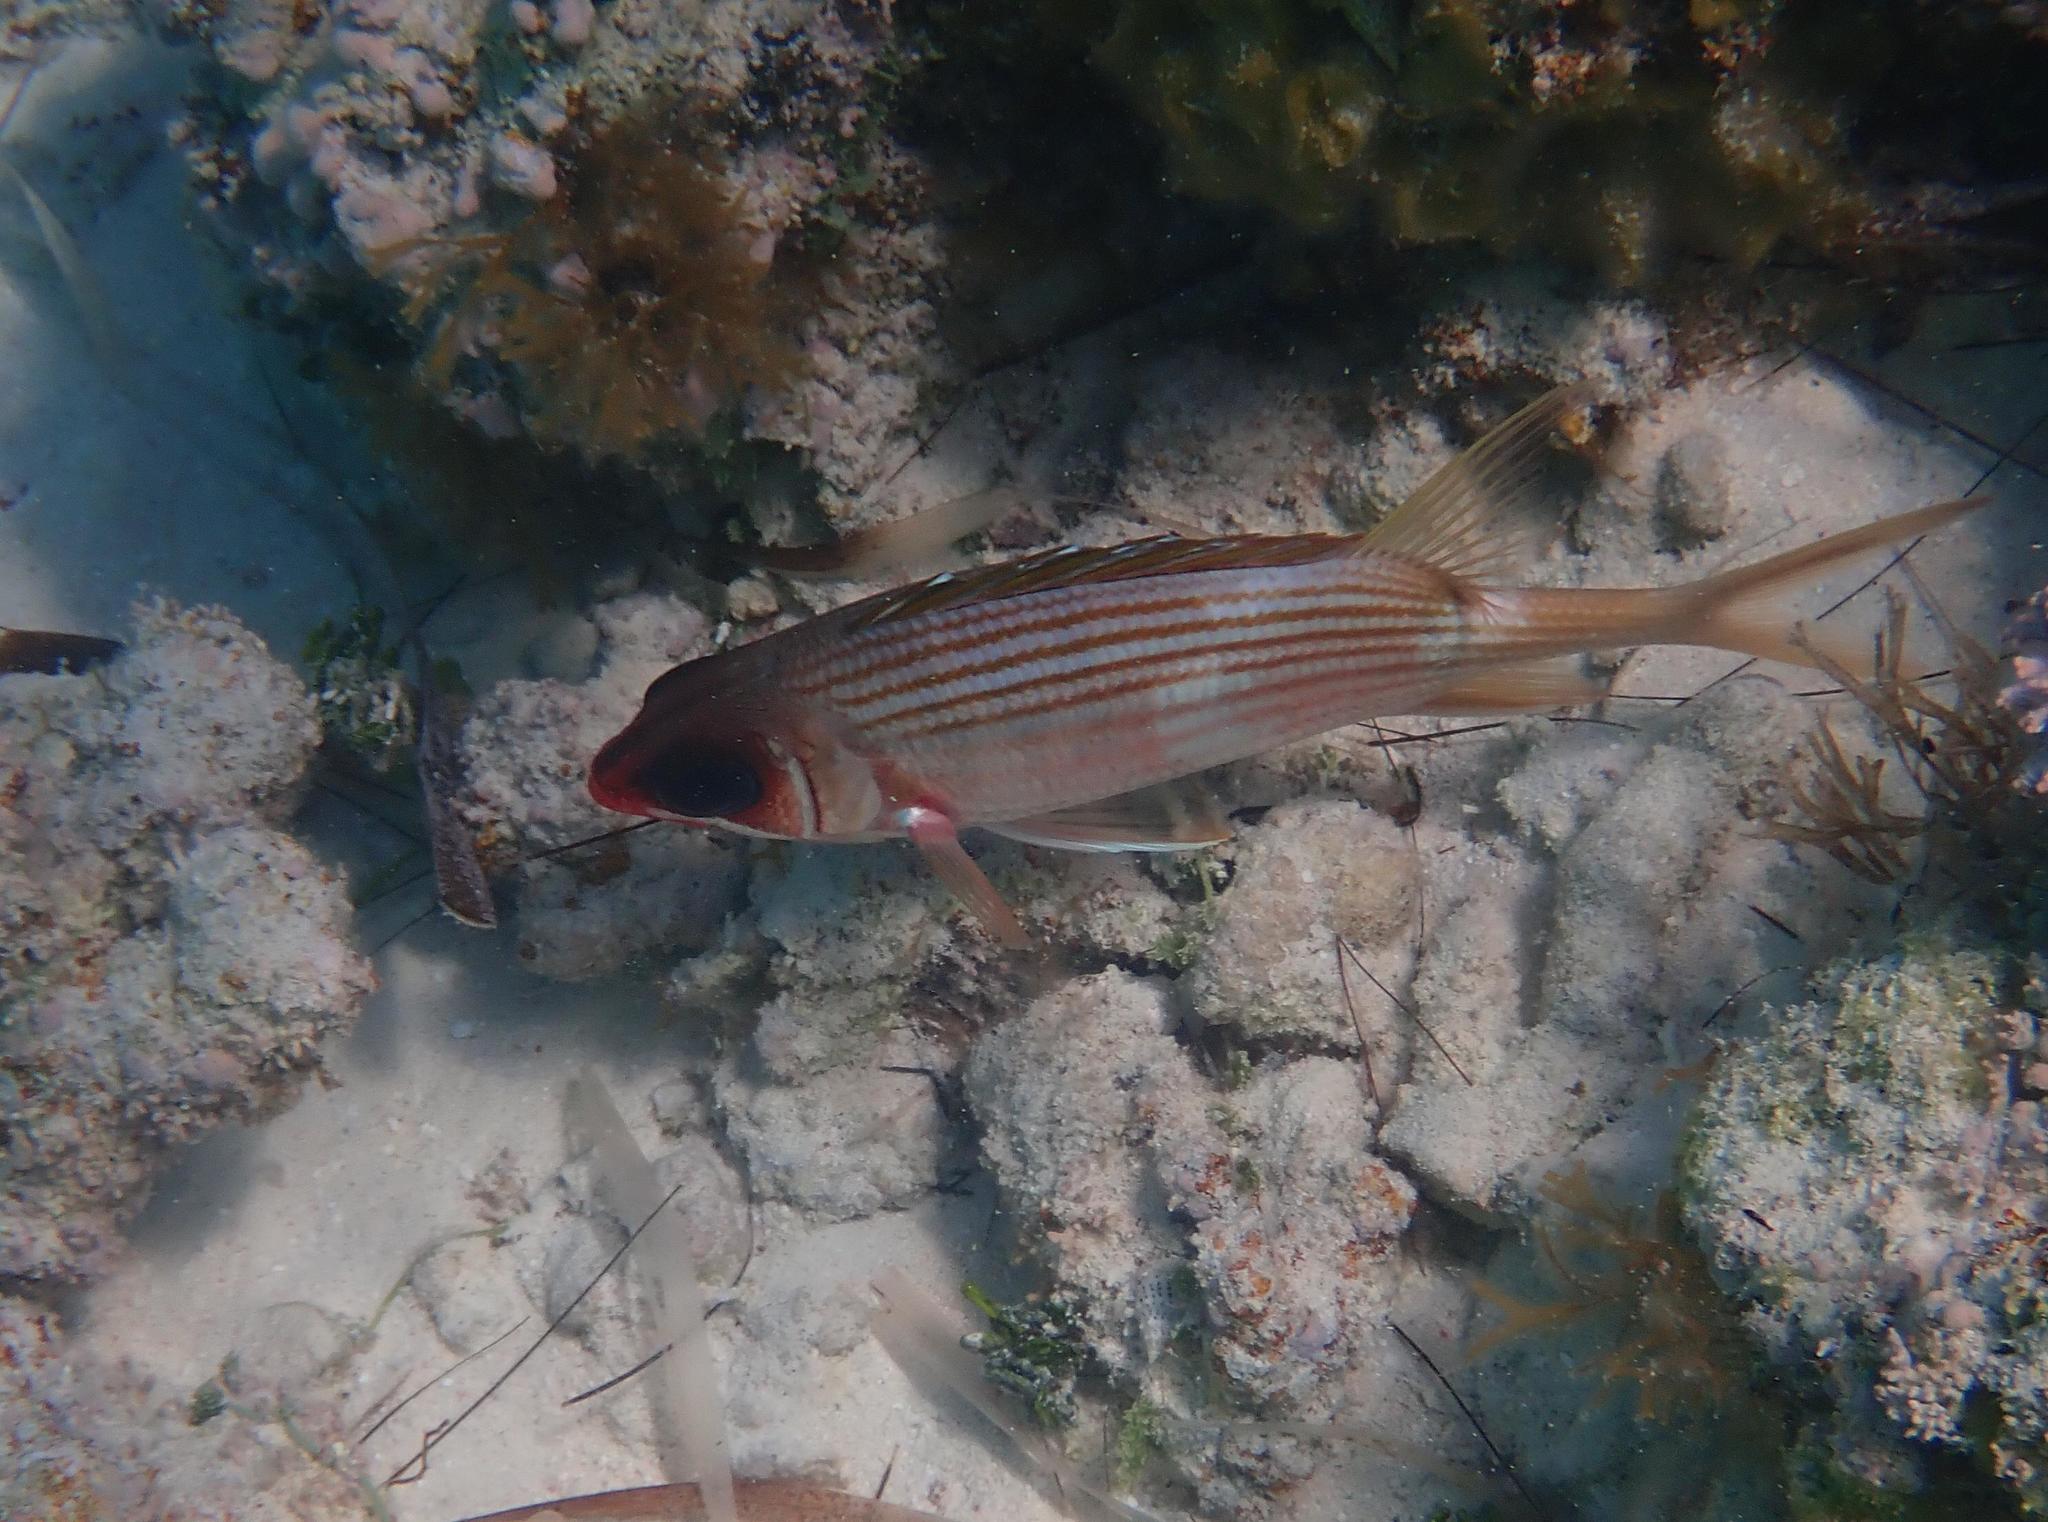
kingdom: Animalia
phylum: Chordata
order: Beryciformes
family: Holocentridae
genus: Holocentrus
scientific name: Holocentrus rufus
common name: Longspine squirrelfish
